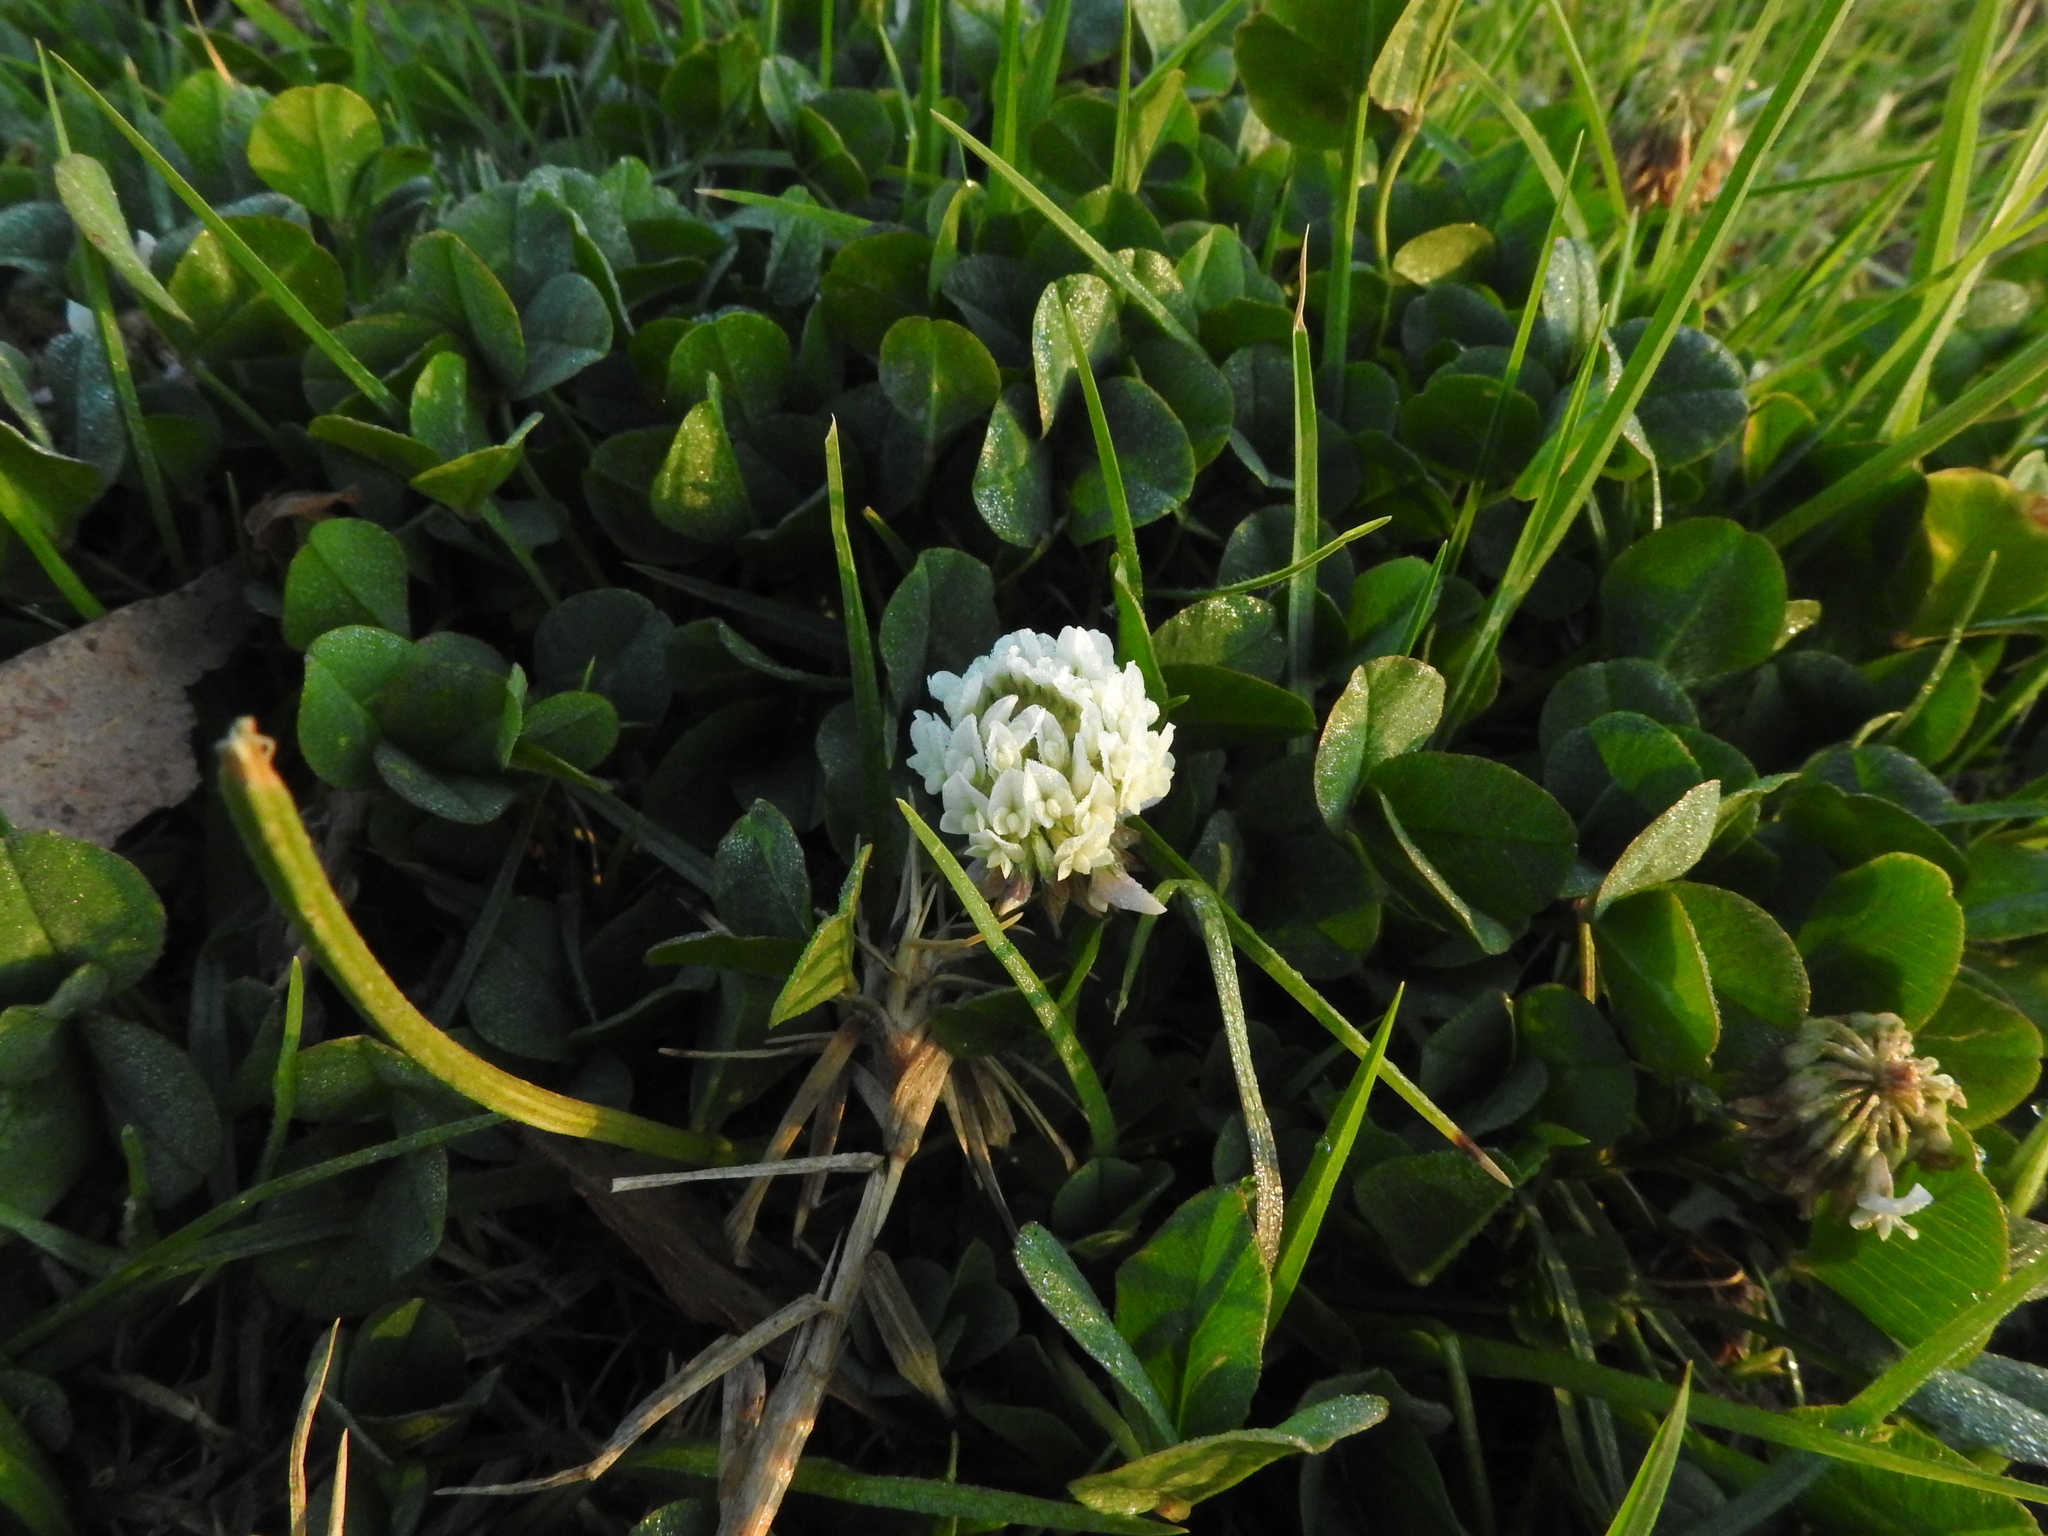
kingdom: Plantae
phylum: Tracheophyta
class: Magnoliopsida
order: Fabales
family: Fabaceae
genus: Trifolium
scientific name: Trifolium repens
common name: White clover
